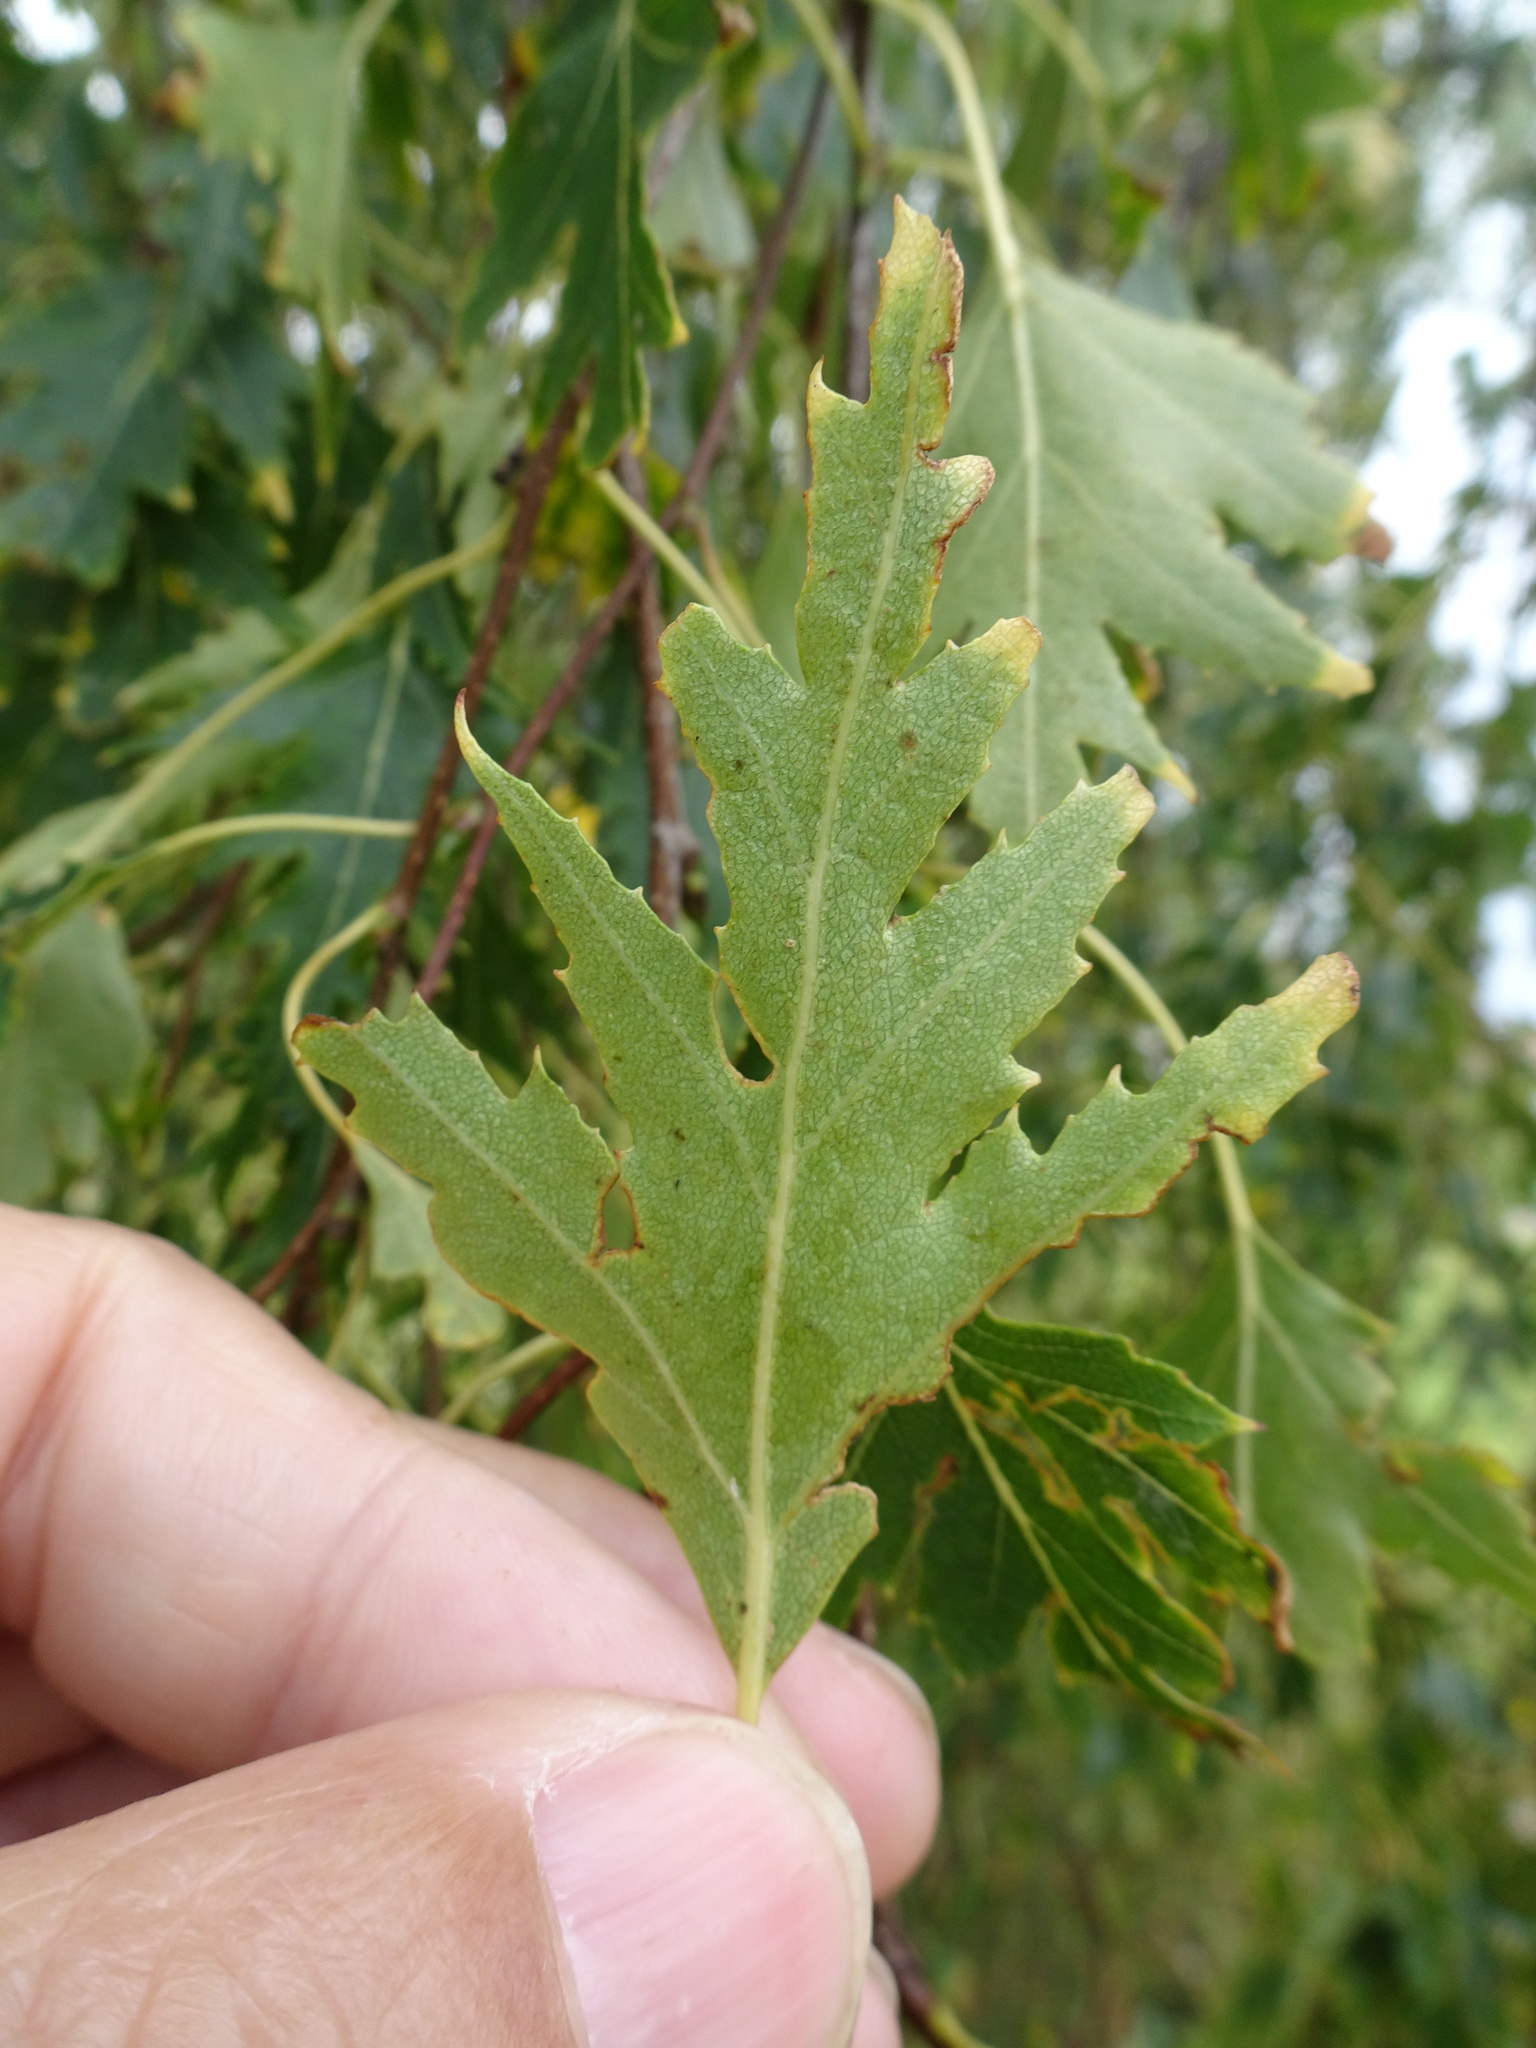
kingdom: Plantae
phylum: Tracheophyta
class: Magnoliopsida
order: Fagales
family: Betulaceae
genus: Betula
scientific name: Betula pendula
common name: Silver birch
